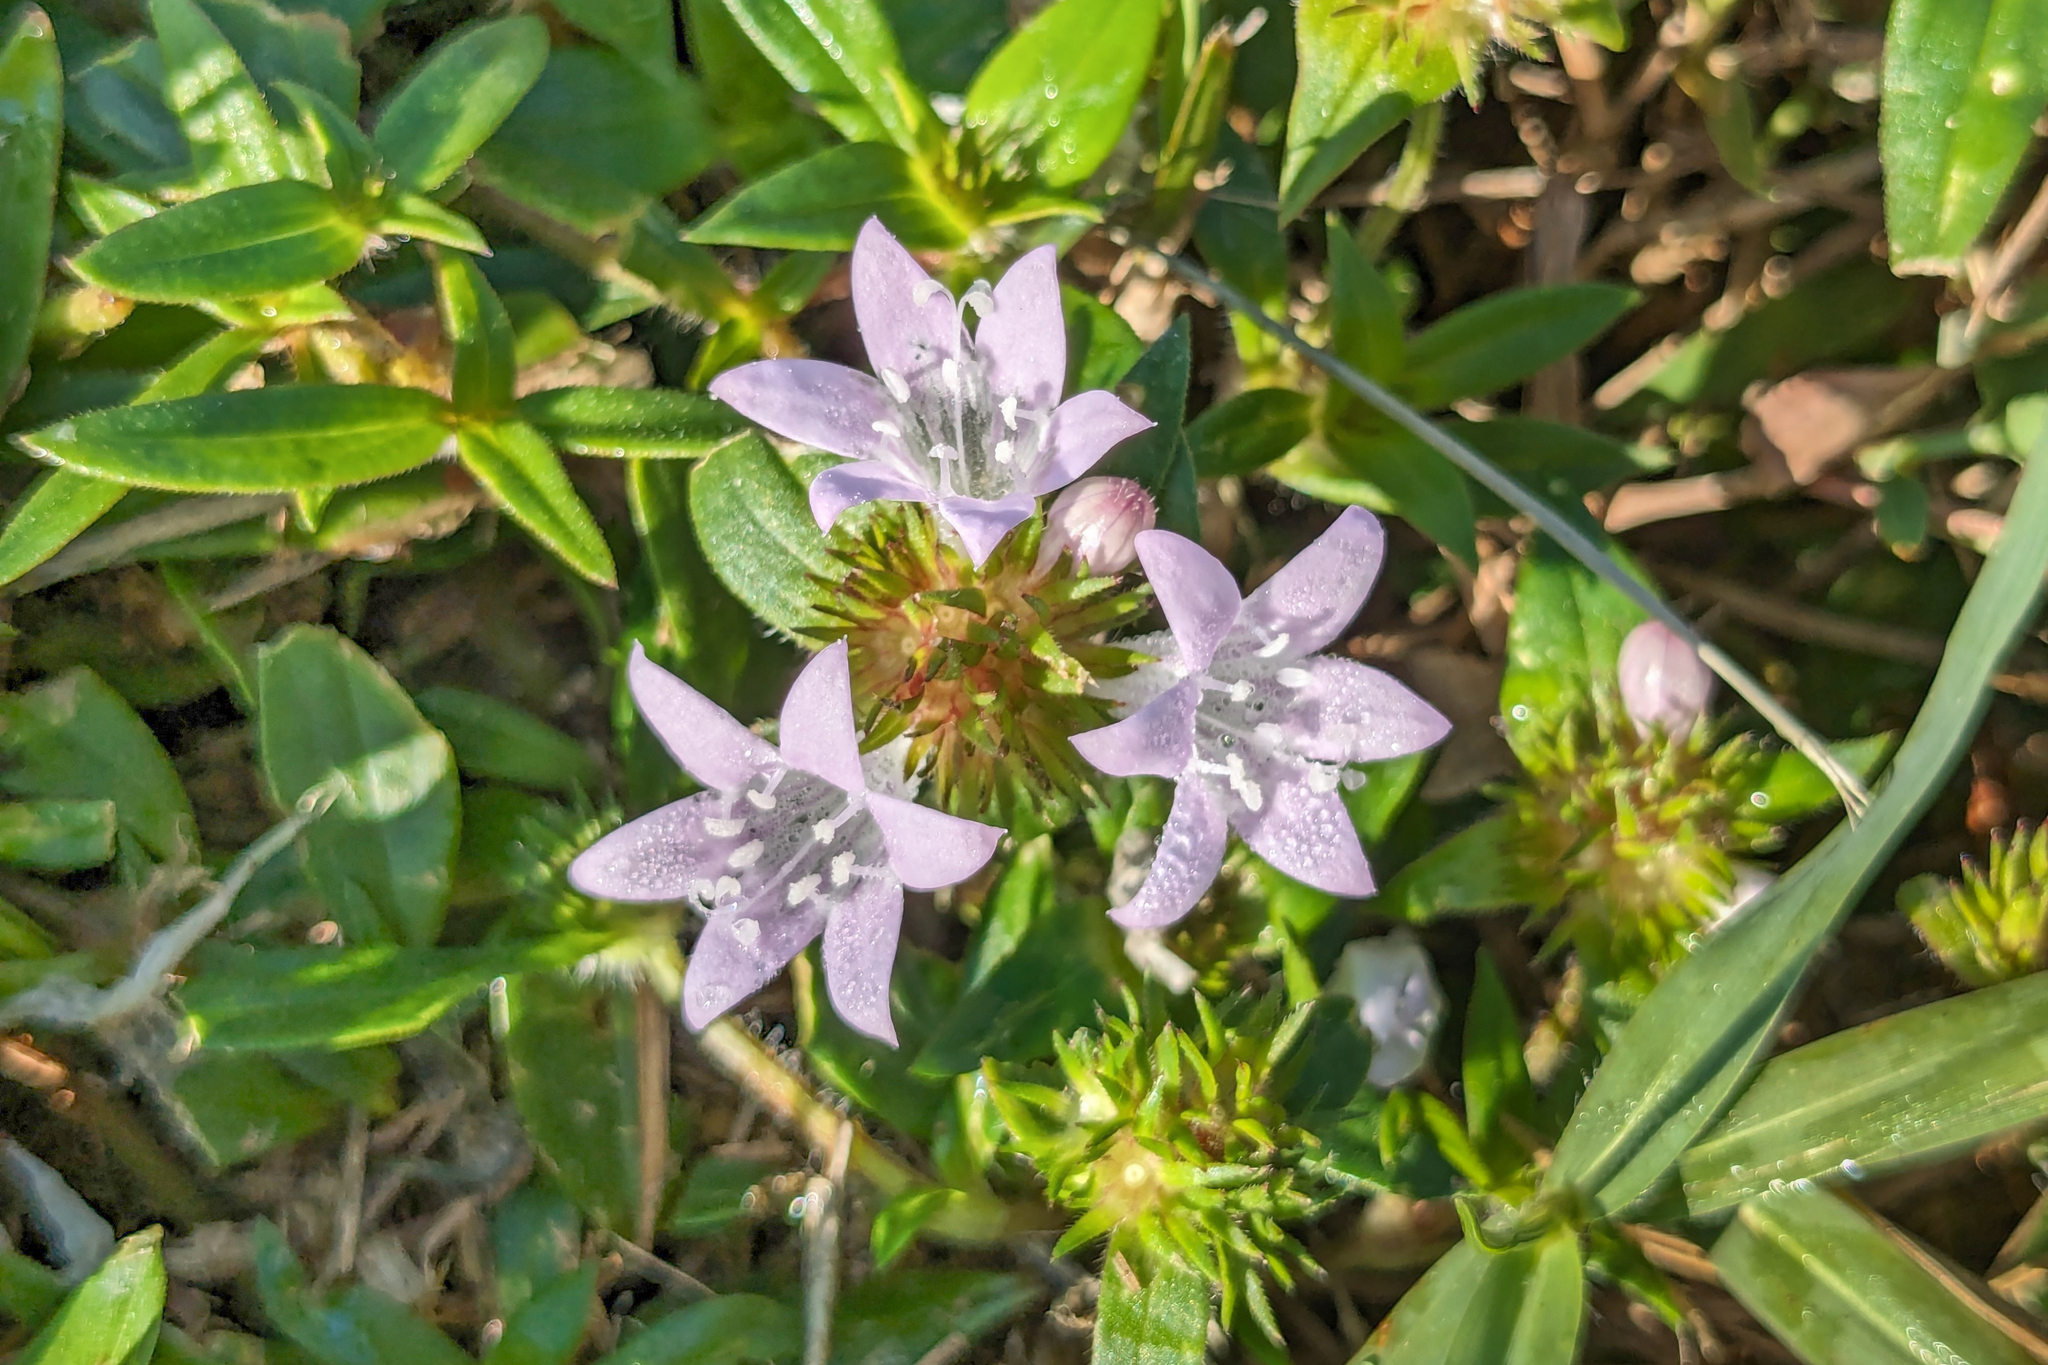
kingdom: Plantae
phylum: Tracheophyta
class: Magnoliopsida
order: Gentianales
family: Rubiaceae
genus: Richardia
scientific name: Richardia grandiflora
